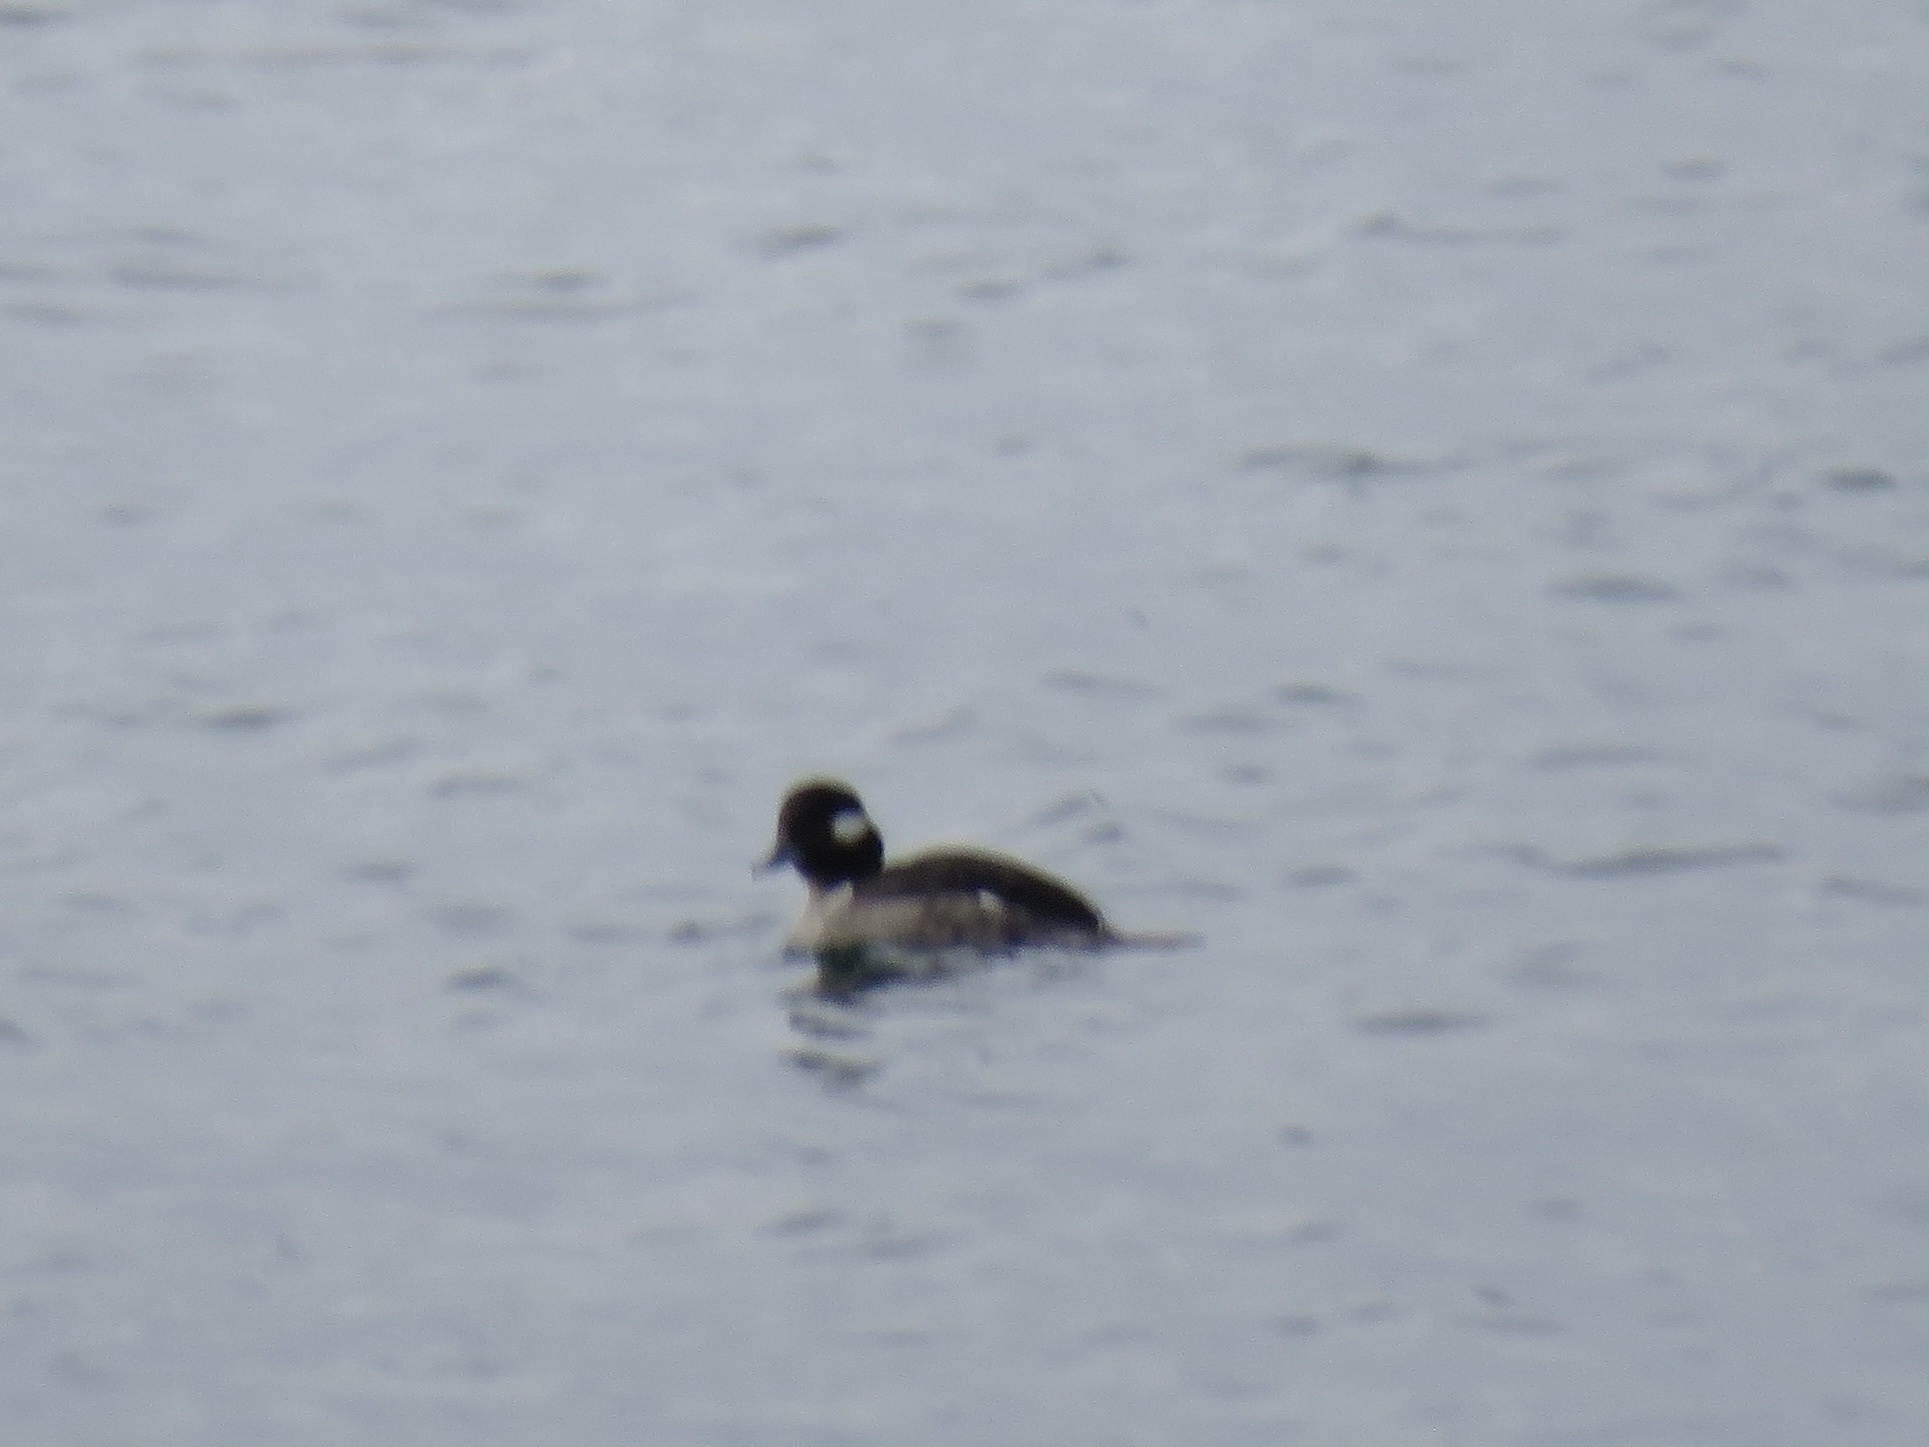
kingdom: Animalia
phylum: Chordata
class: Aves
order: Anseriformes
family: Anatidae
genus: Bucephala
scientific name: Bucephala albeola
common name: Bufflehead
